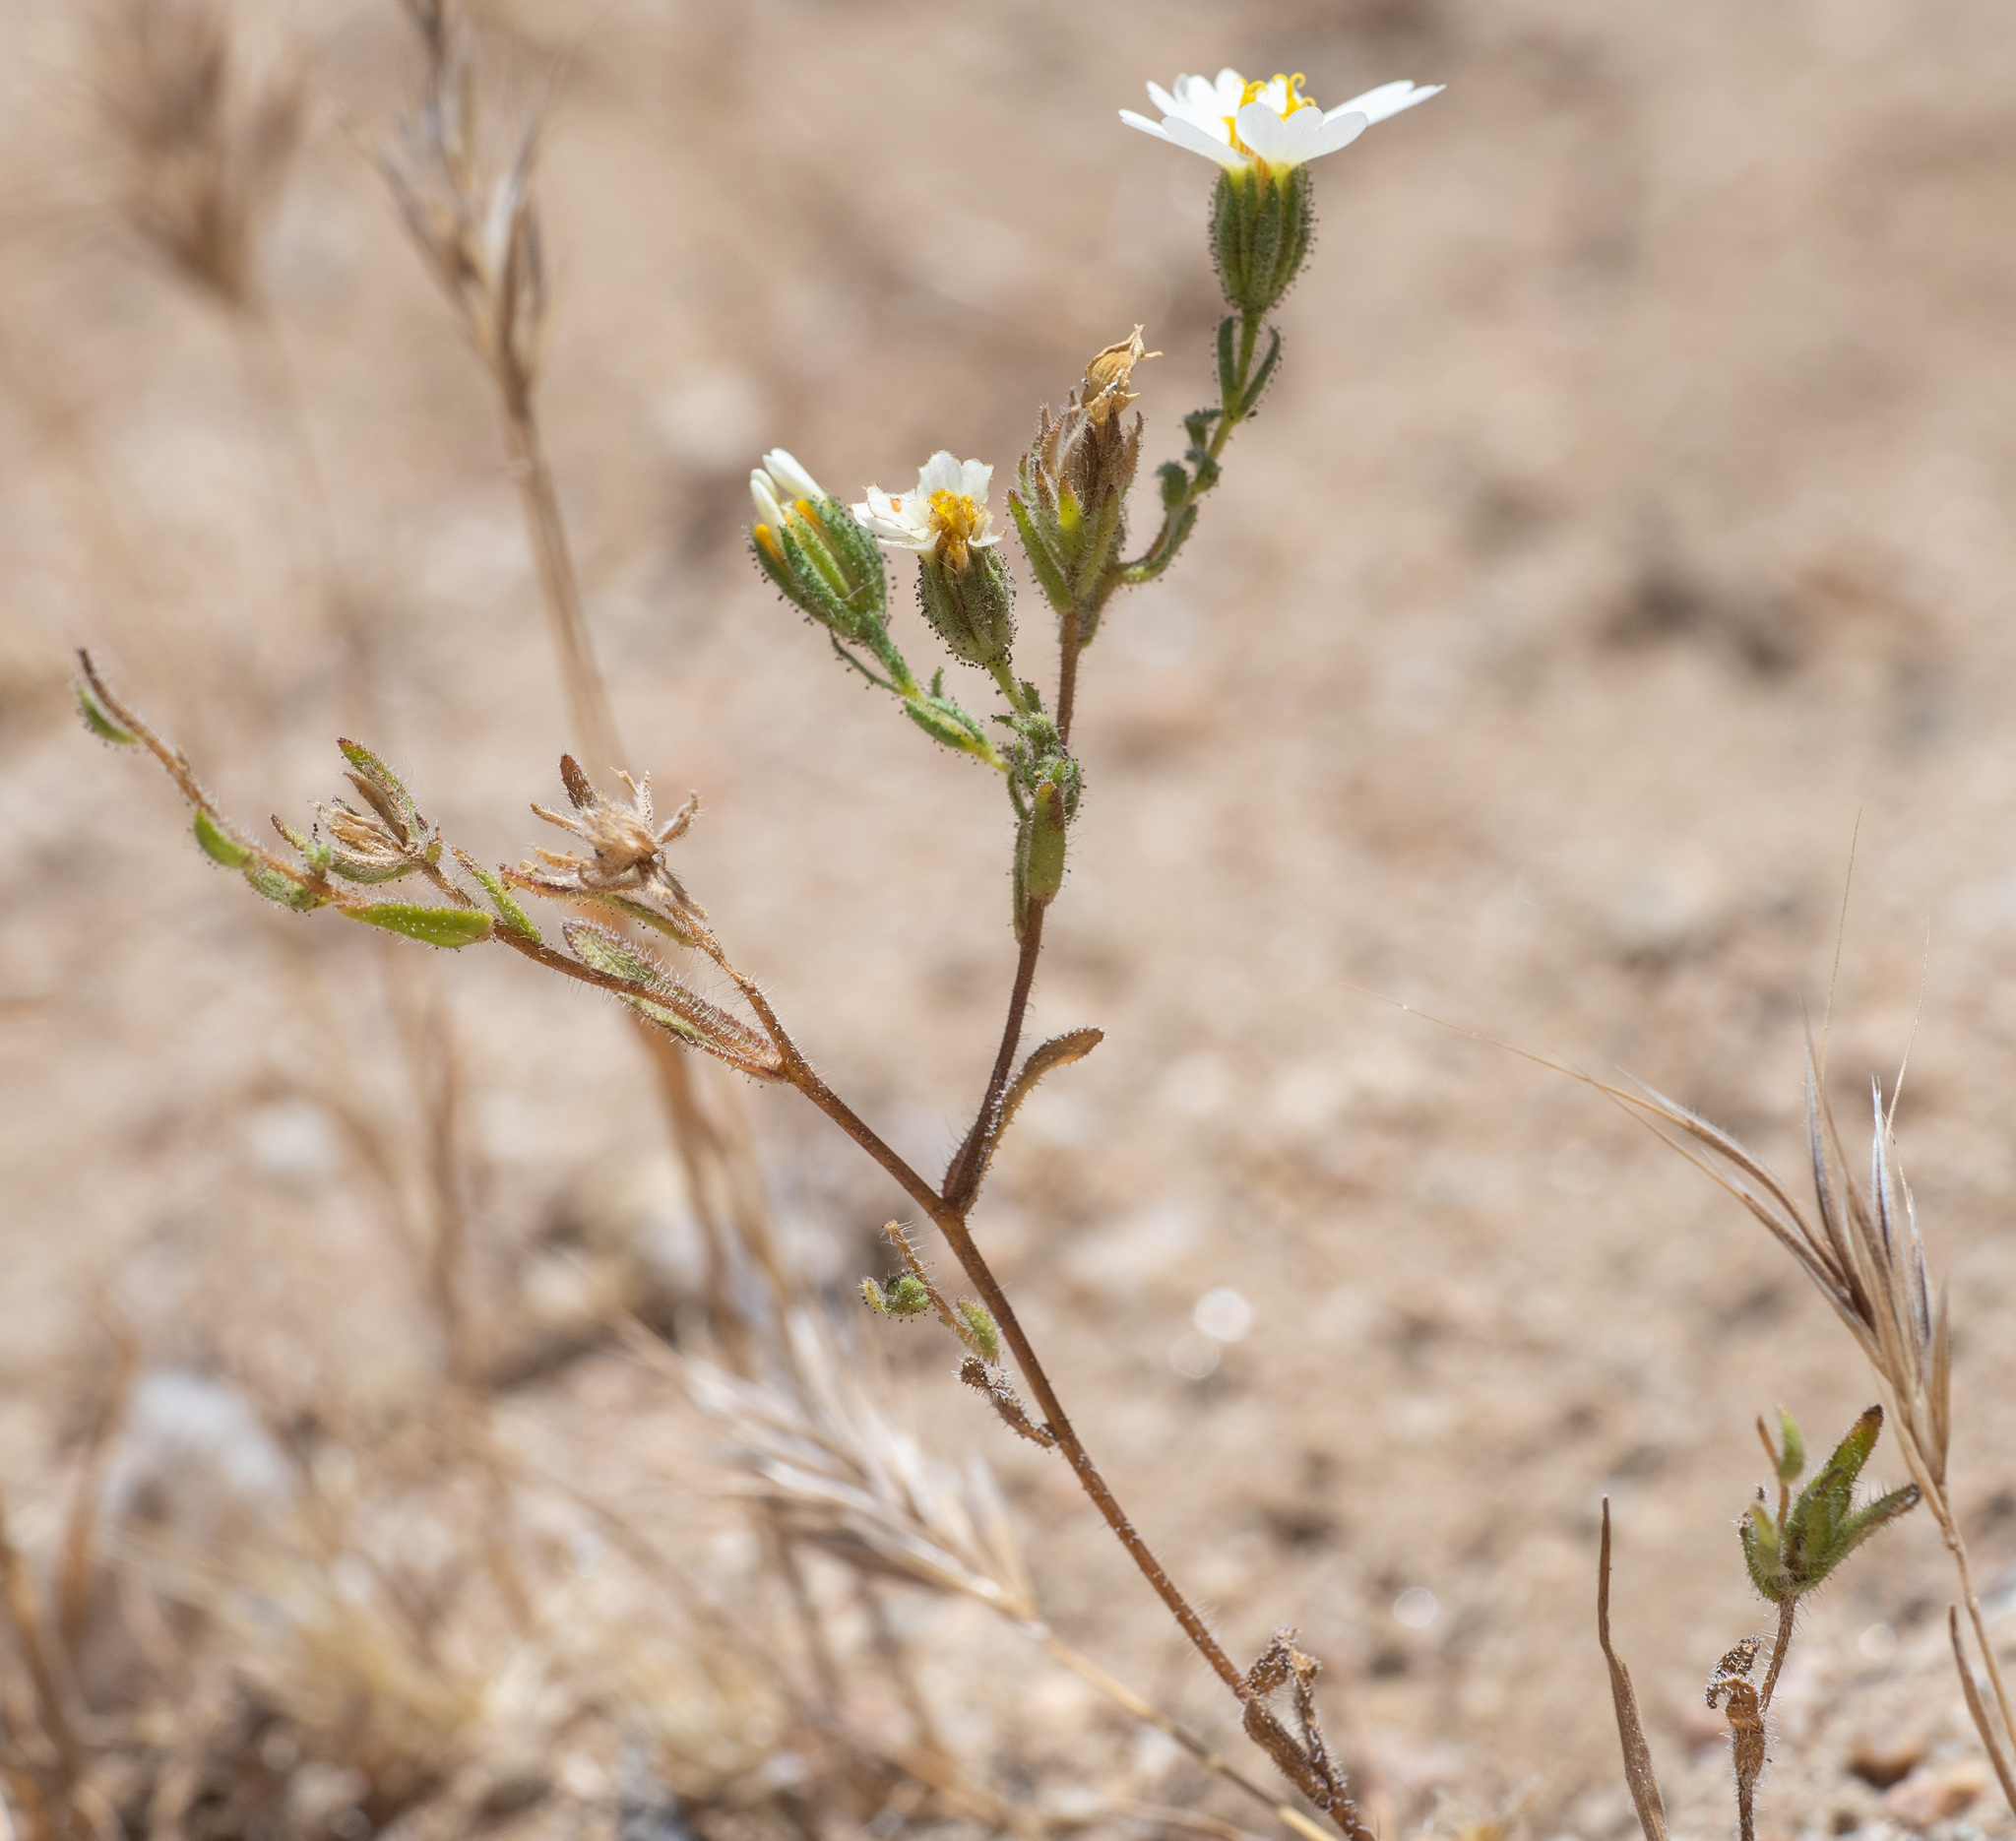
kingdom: Plantae
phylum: Tracheophyta
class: Magnoliopsida
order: Asterales
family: Asteraceae
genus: Layia
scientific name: Layia glandulosa
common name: White layia
